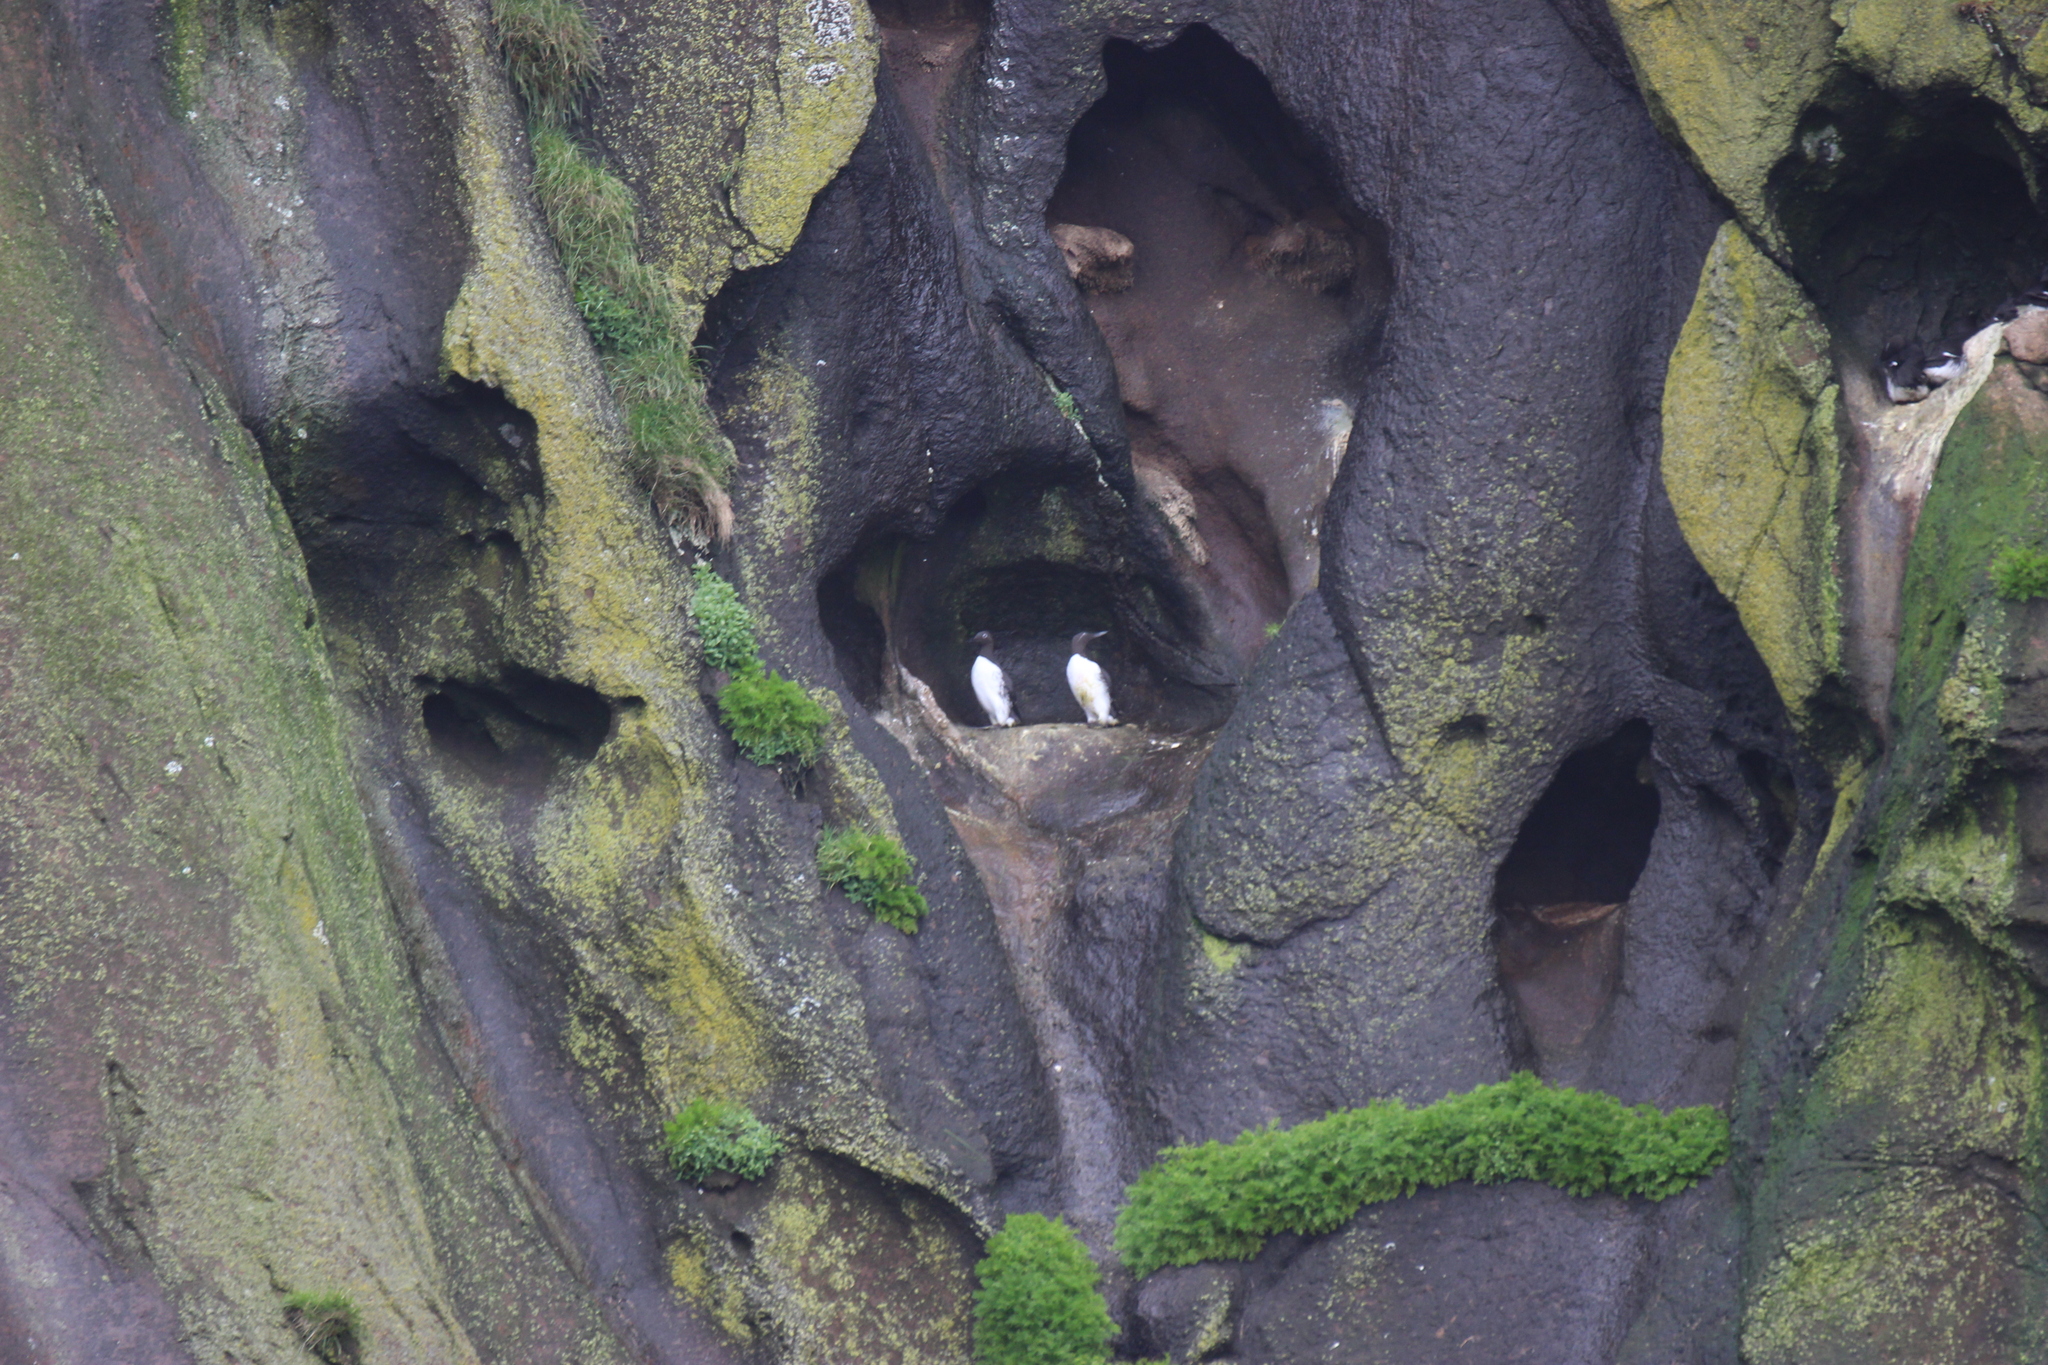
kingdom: Animalia
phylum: Chordata
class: Aves
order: Charadriiformes
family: Alcidae
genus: Uria
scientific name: Uria aalge
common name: Common murre
